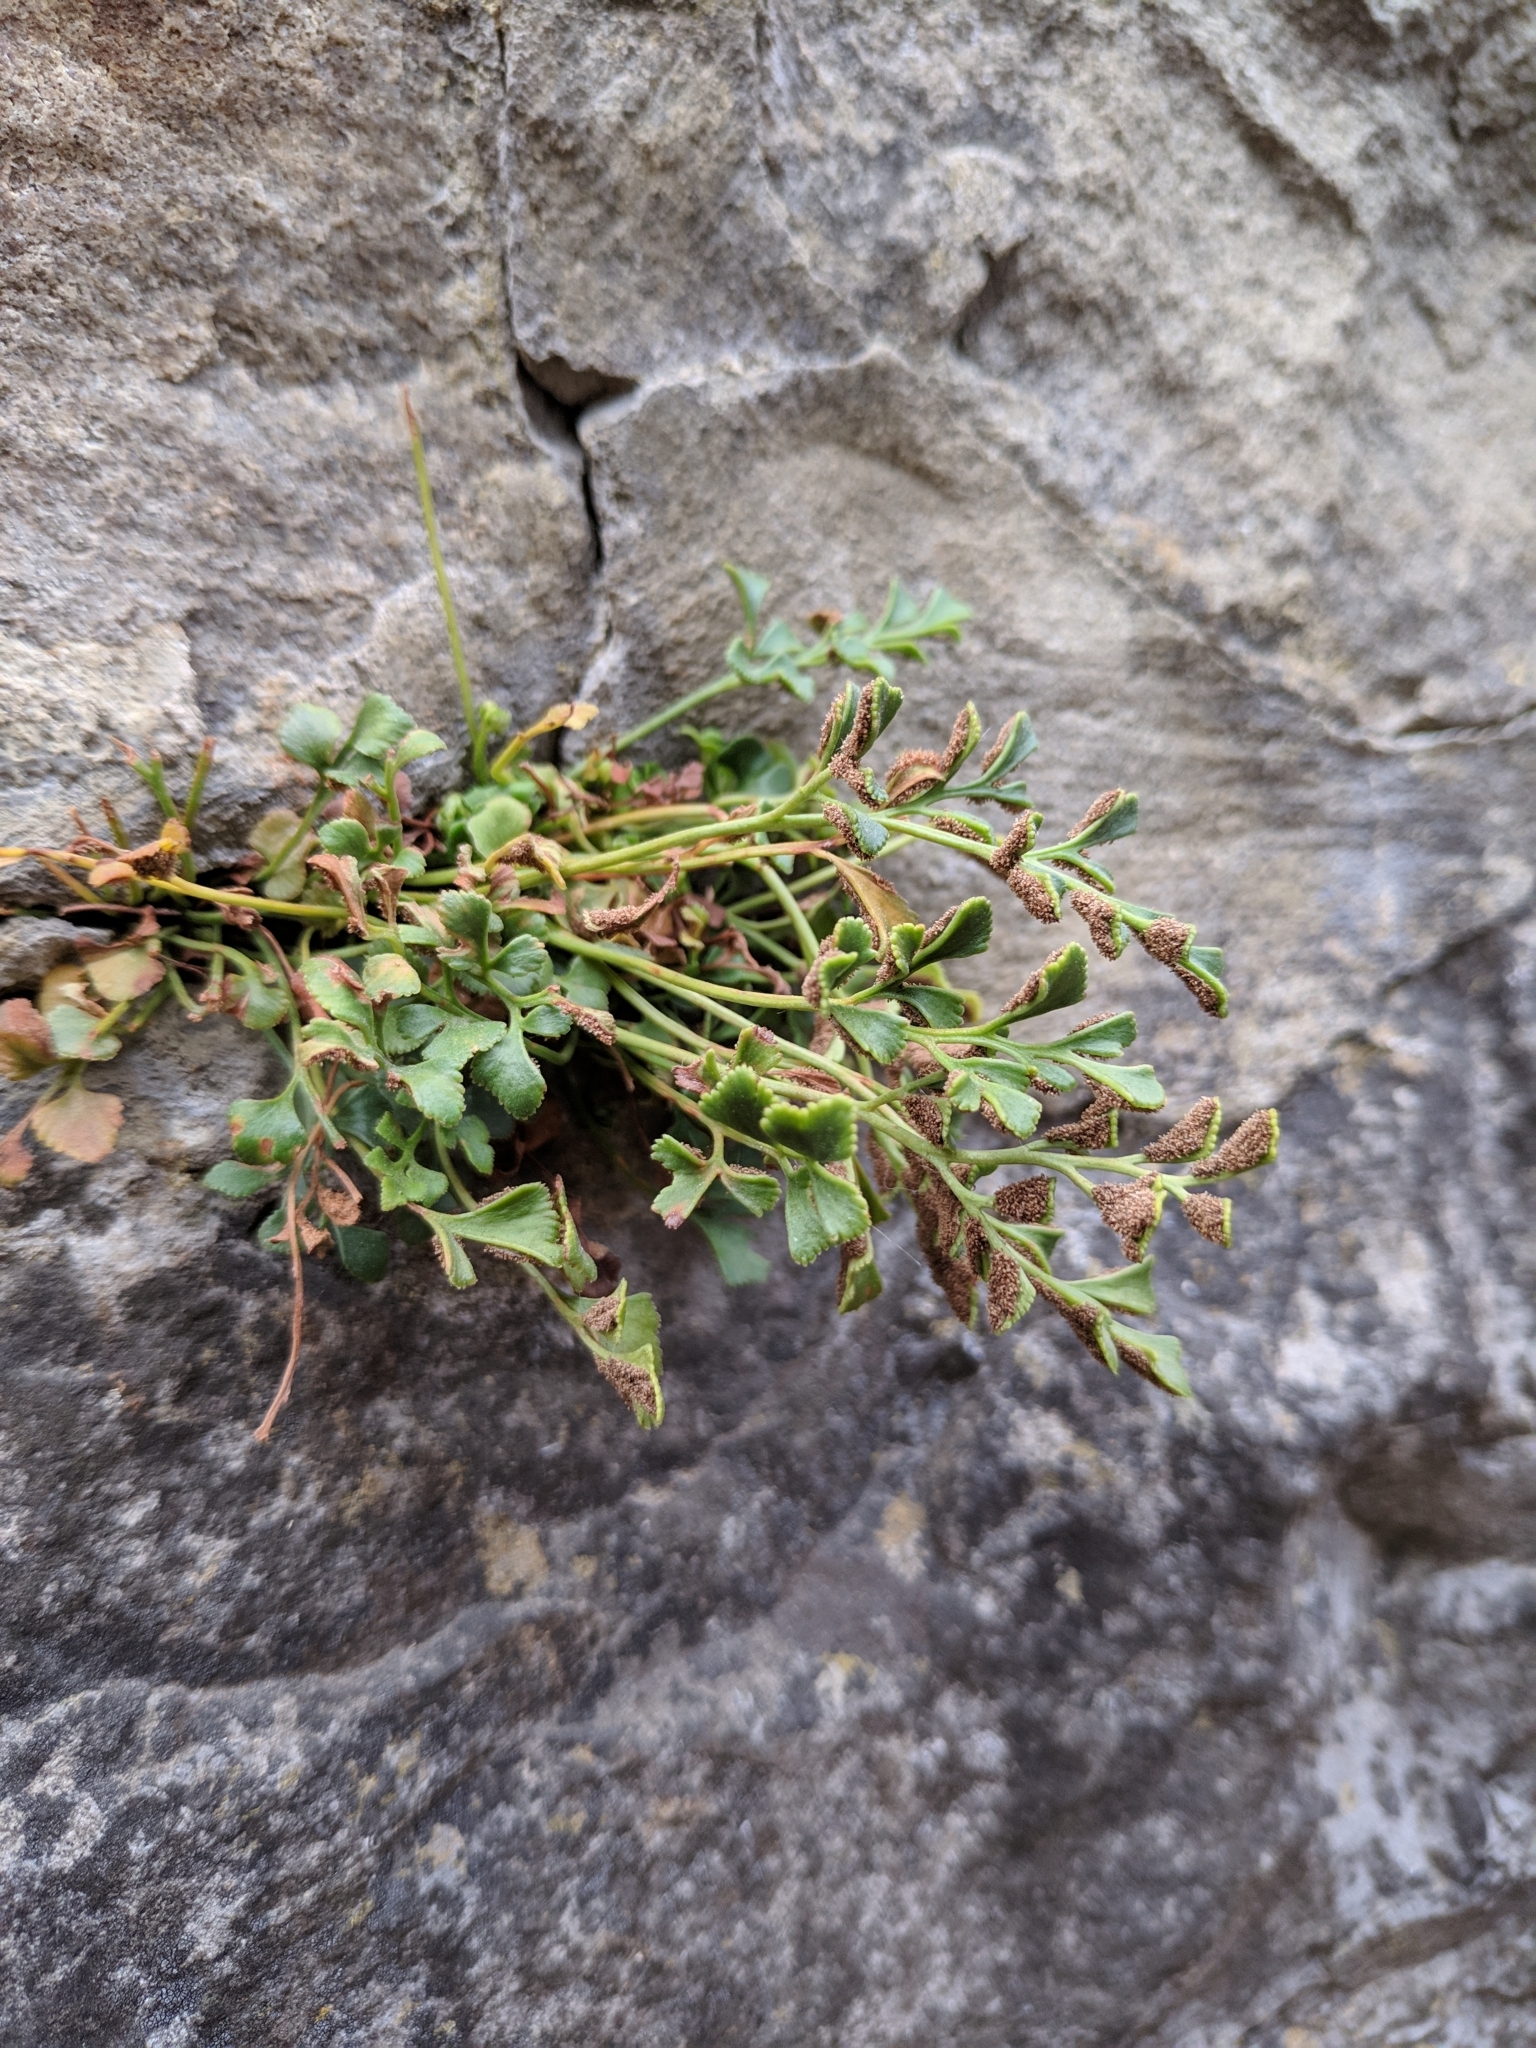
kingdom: Plantae
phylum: Tracheophyta
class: Polypodiopsida
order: Polypodiales
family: Aspleniaceae
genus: Asplenium
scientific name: Asplenium ruta-muraria
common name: Wall-rue
